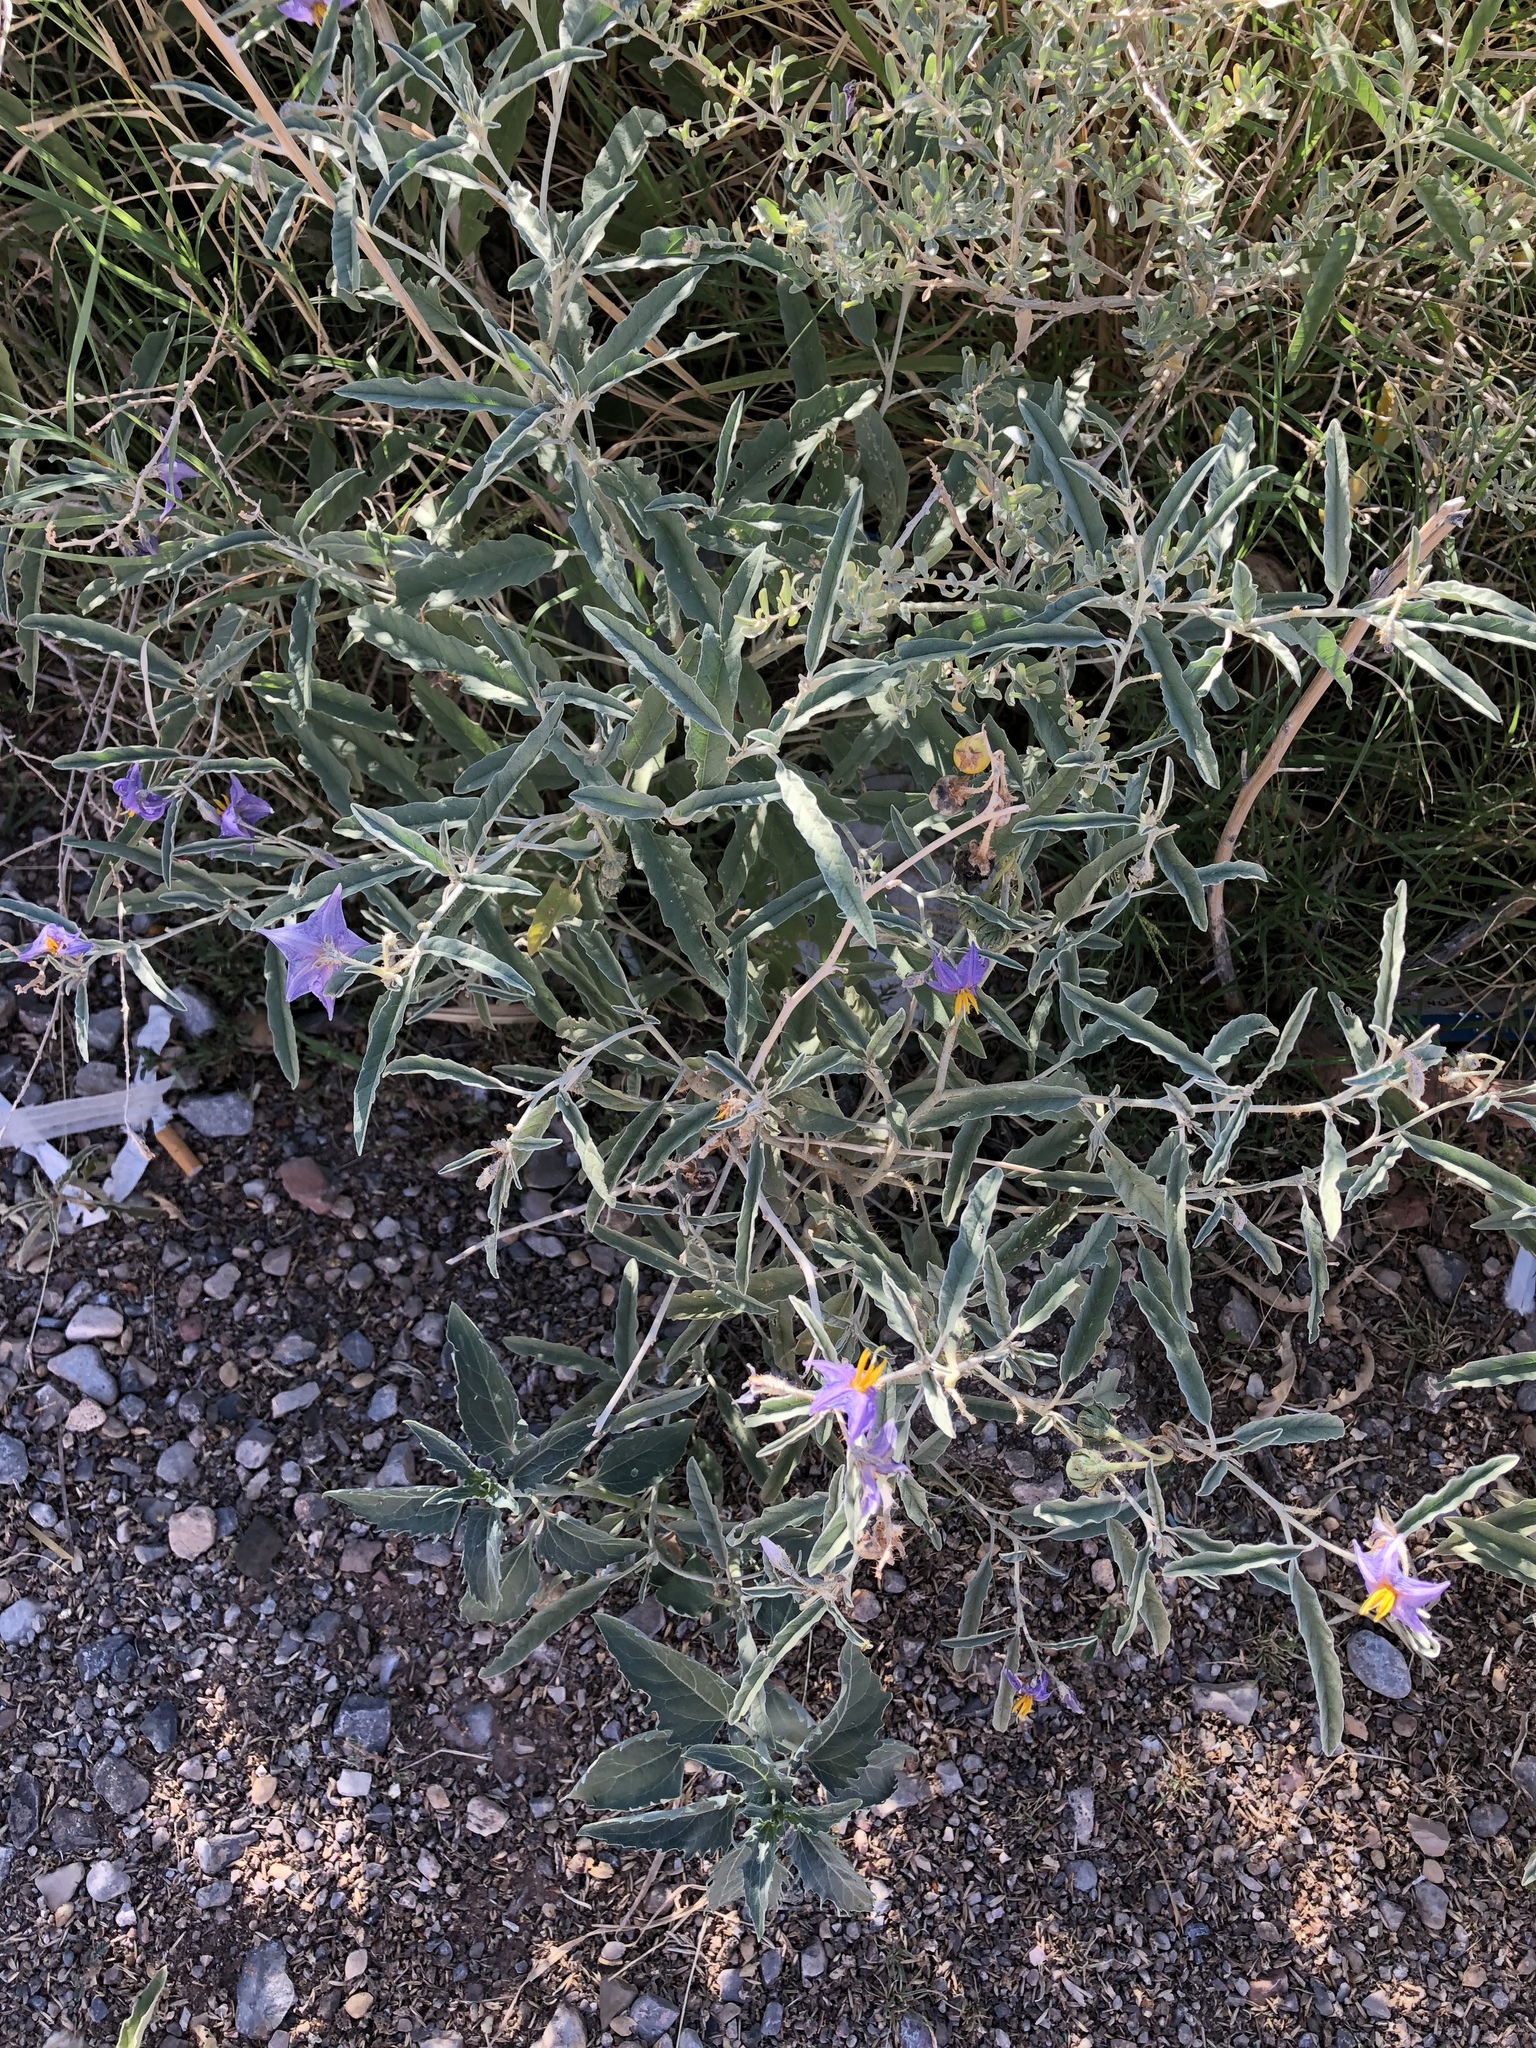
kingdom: Plantae
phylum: Tracheophyta
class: Magnoliopsida
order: Solanales
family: Solanaceae
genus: Solanum
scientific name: Solanum elaeagnifolium
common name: Silverleaf nightshade
